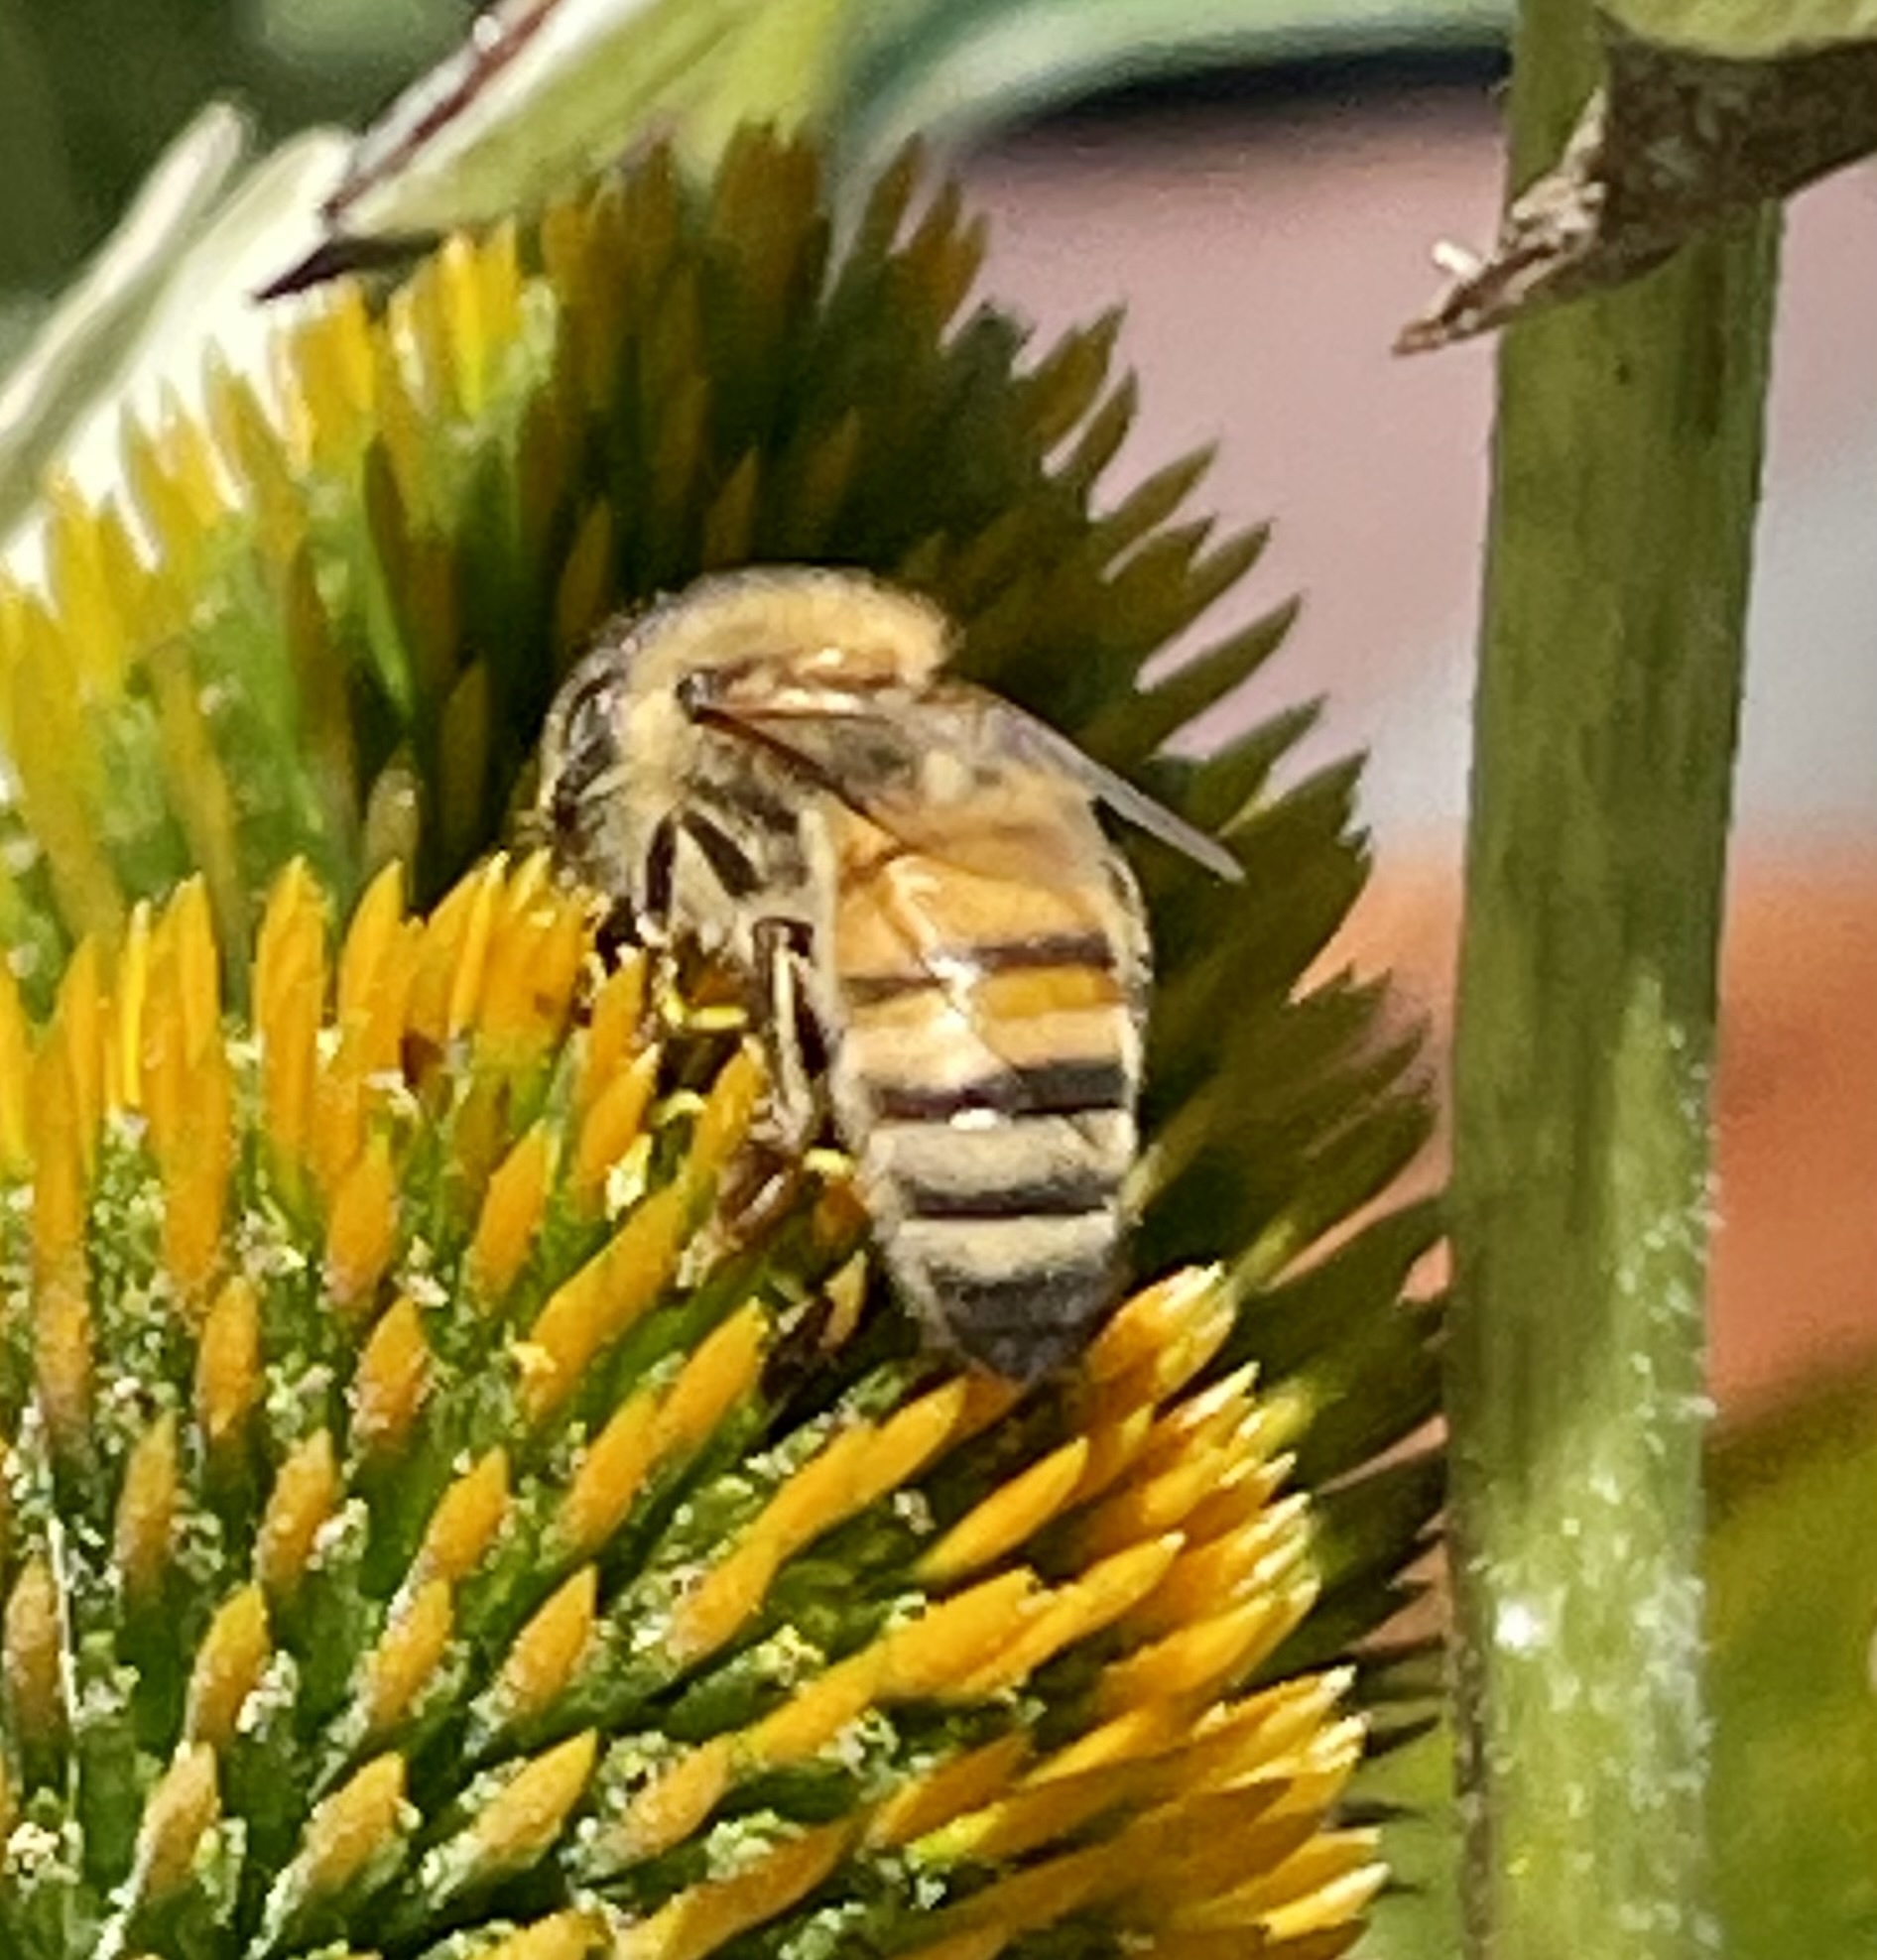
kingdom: Animalia
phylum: Arthropoda
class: Insecta
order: Hymenoptera
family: Apidae
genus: Apis
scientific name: Apis mellifera
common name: Honey bee
